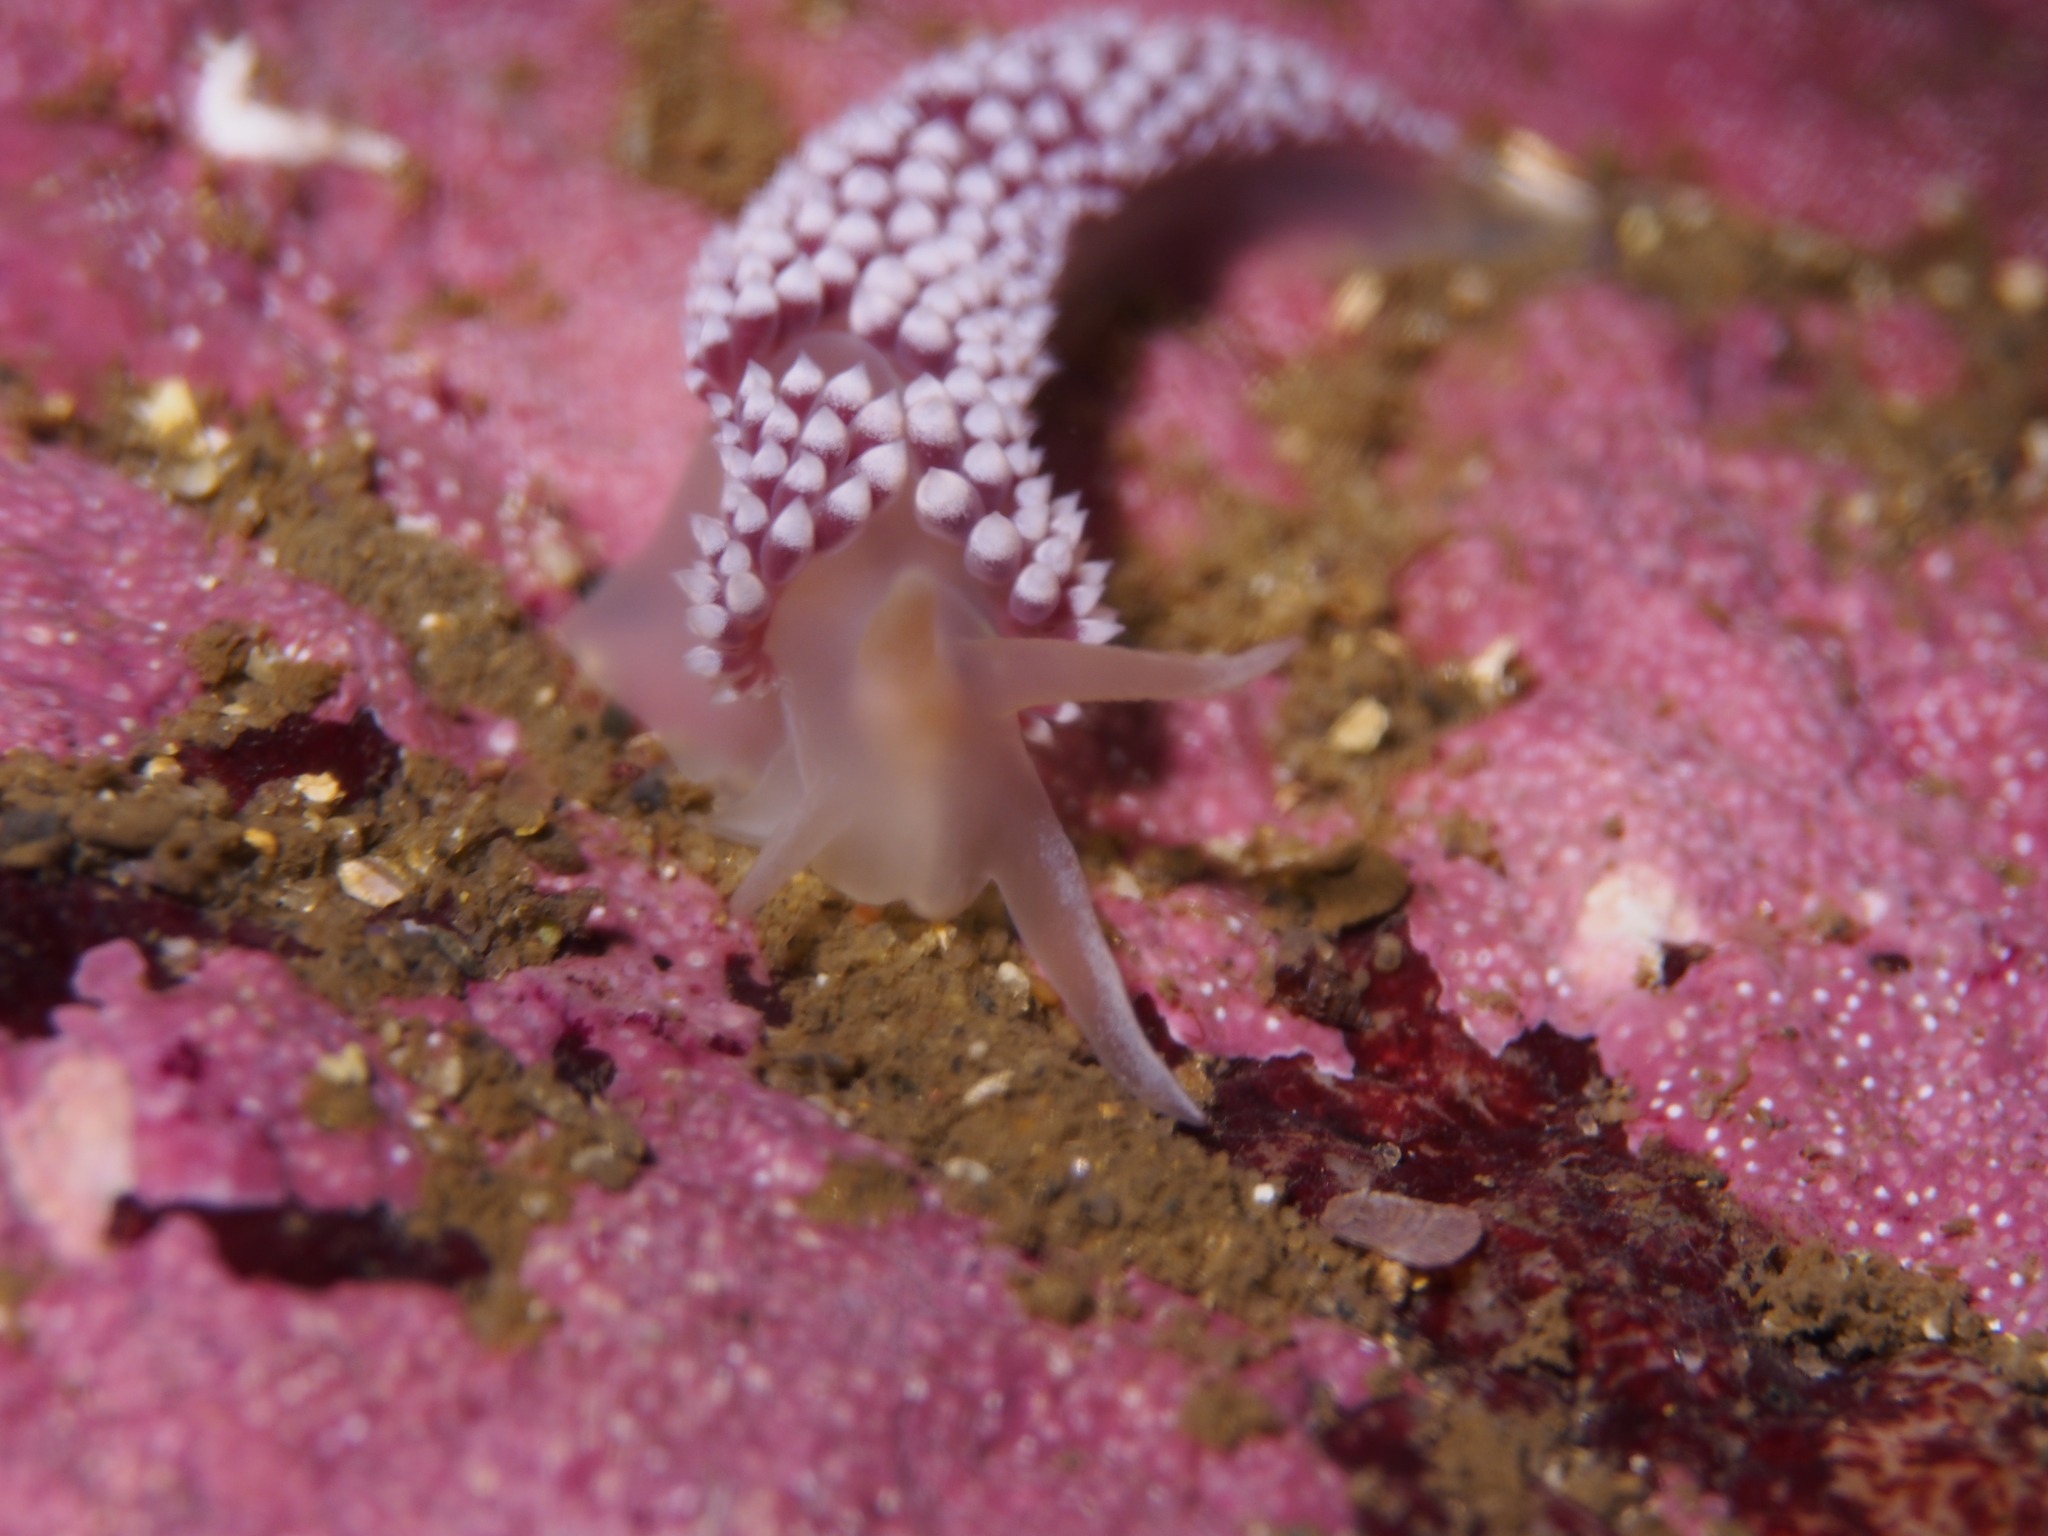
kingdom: Animalia
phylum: Mollusca
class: Gastropoda
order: Nudibranchia
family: Coryphellidae
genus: Coryphella
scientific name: Coryphella verrucosa
